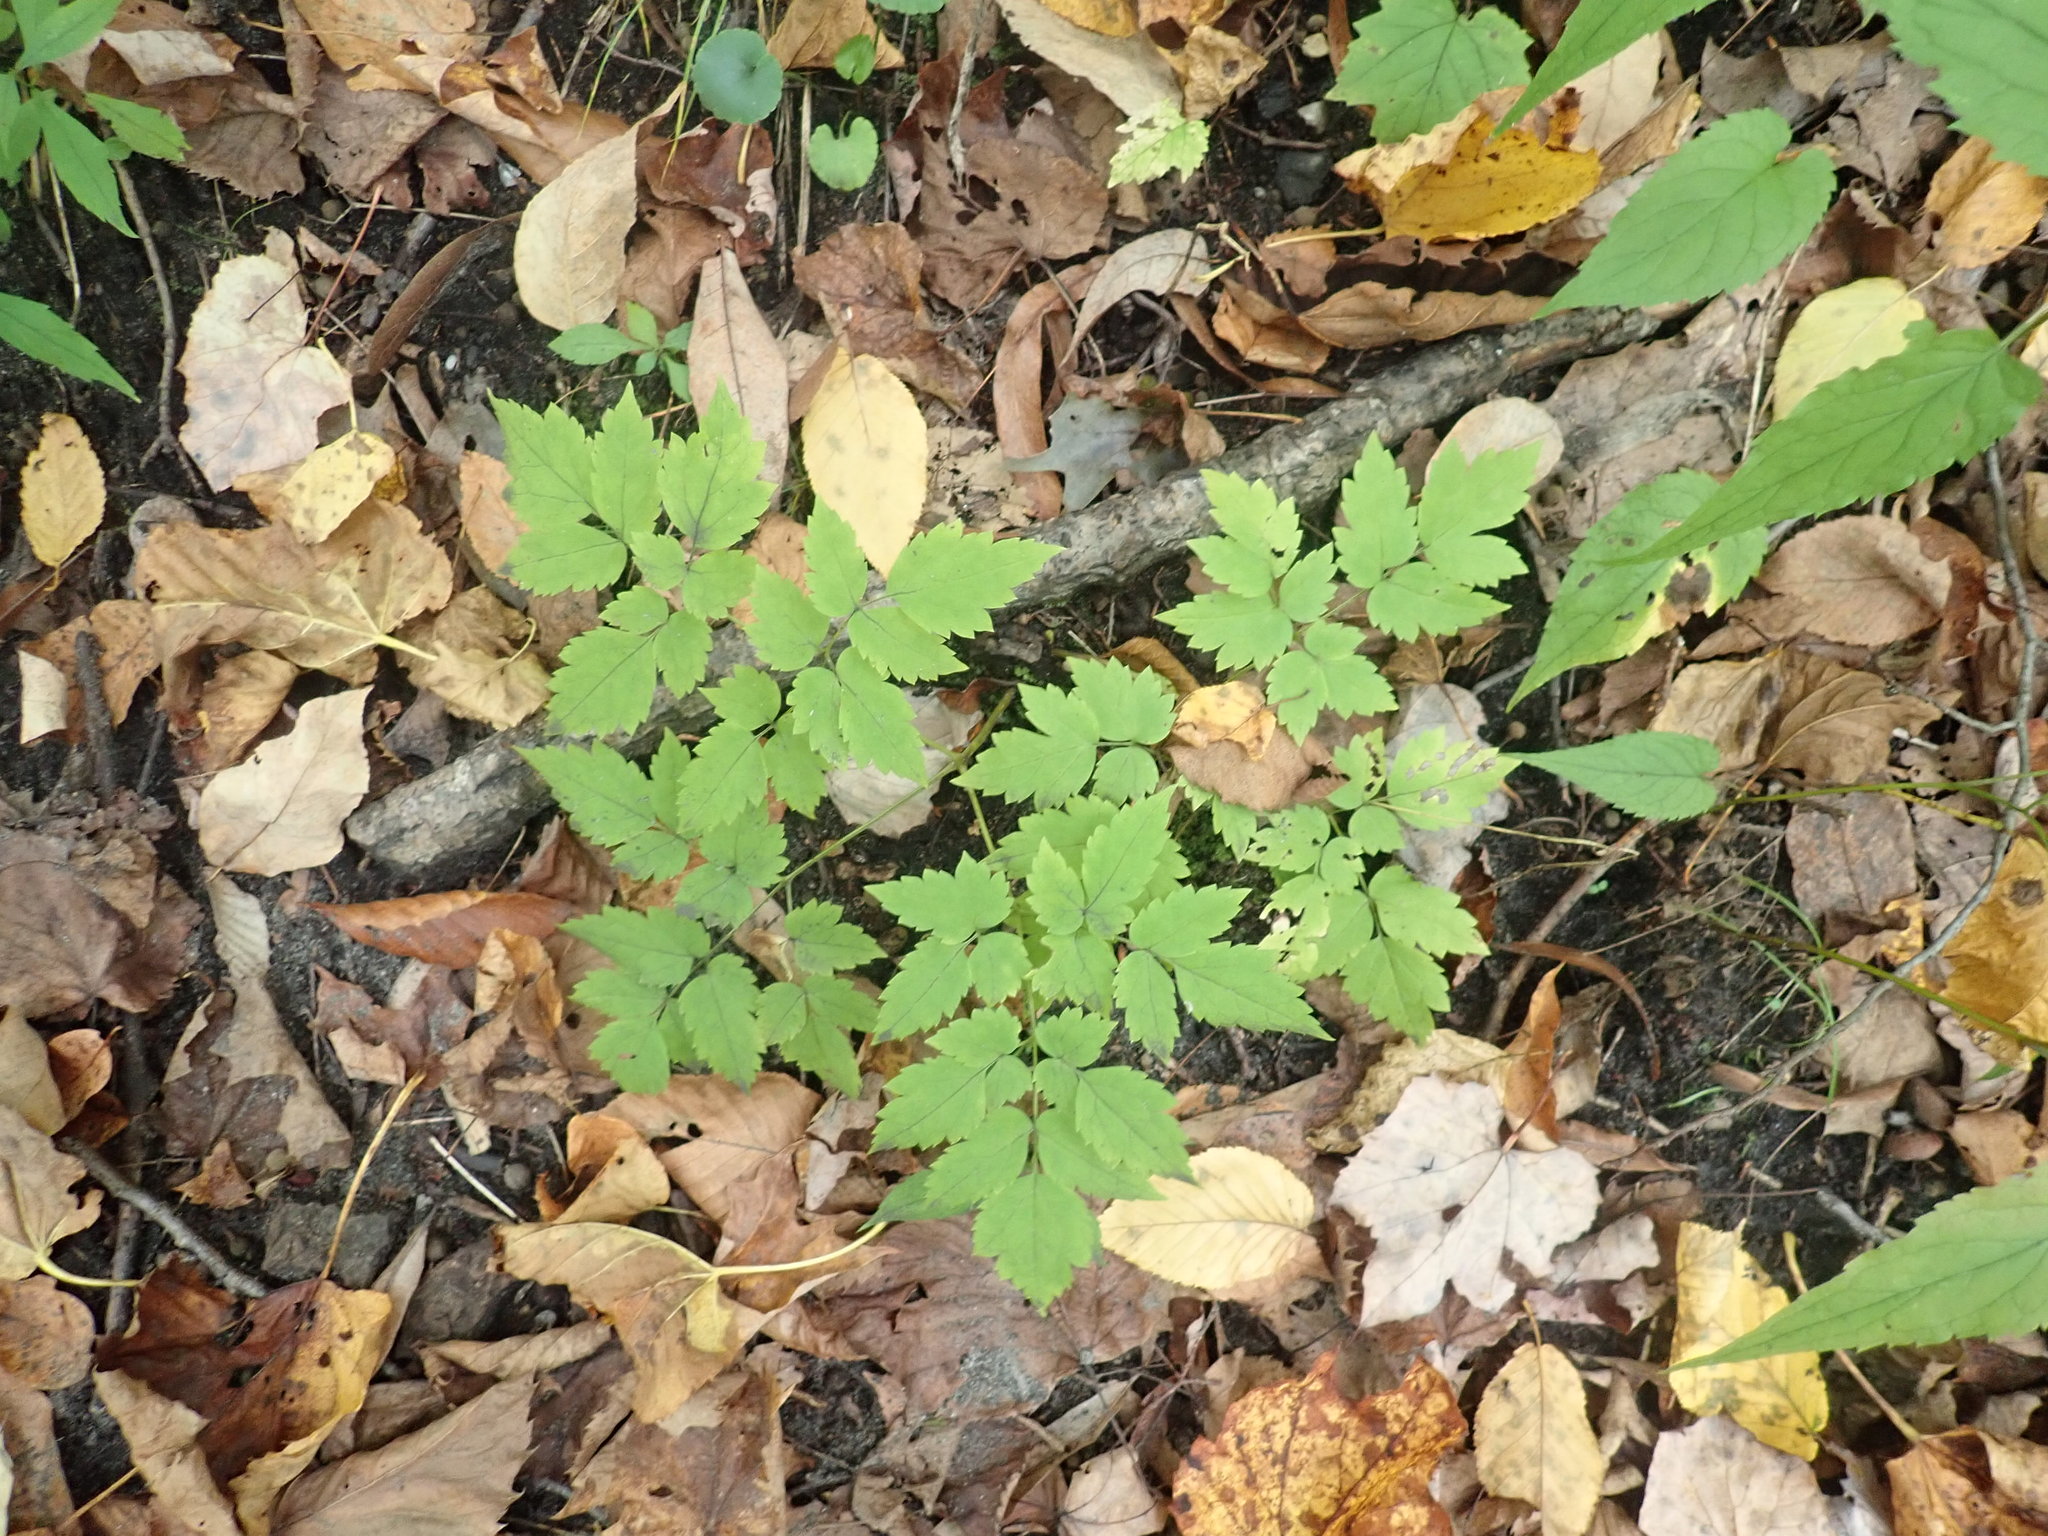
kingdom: Plantae
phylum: Tracheophyta
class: Magnoliopsida
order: Ranunculales
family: Ranunculaceae
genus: Actaea
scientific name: Actaea
